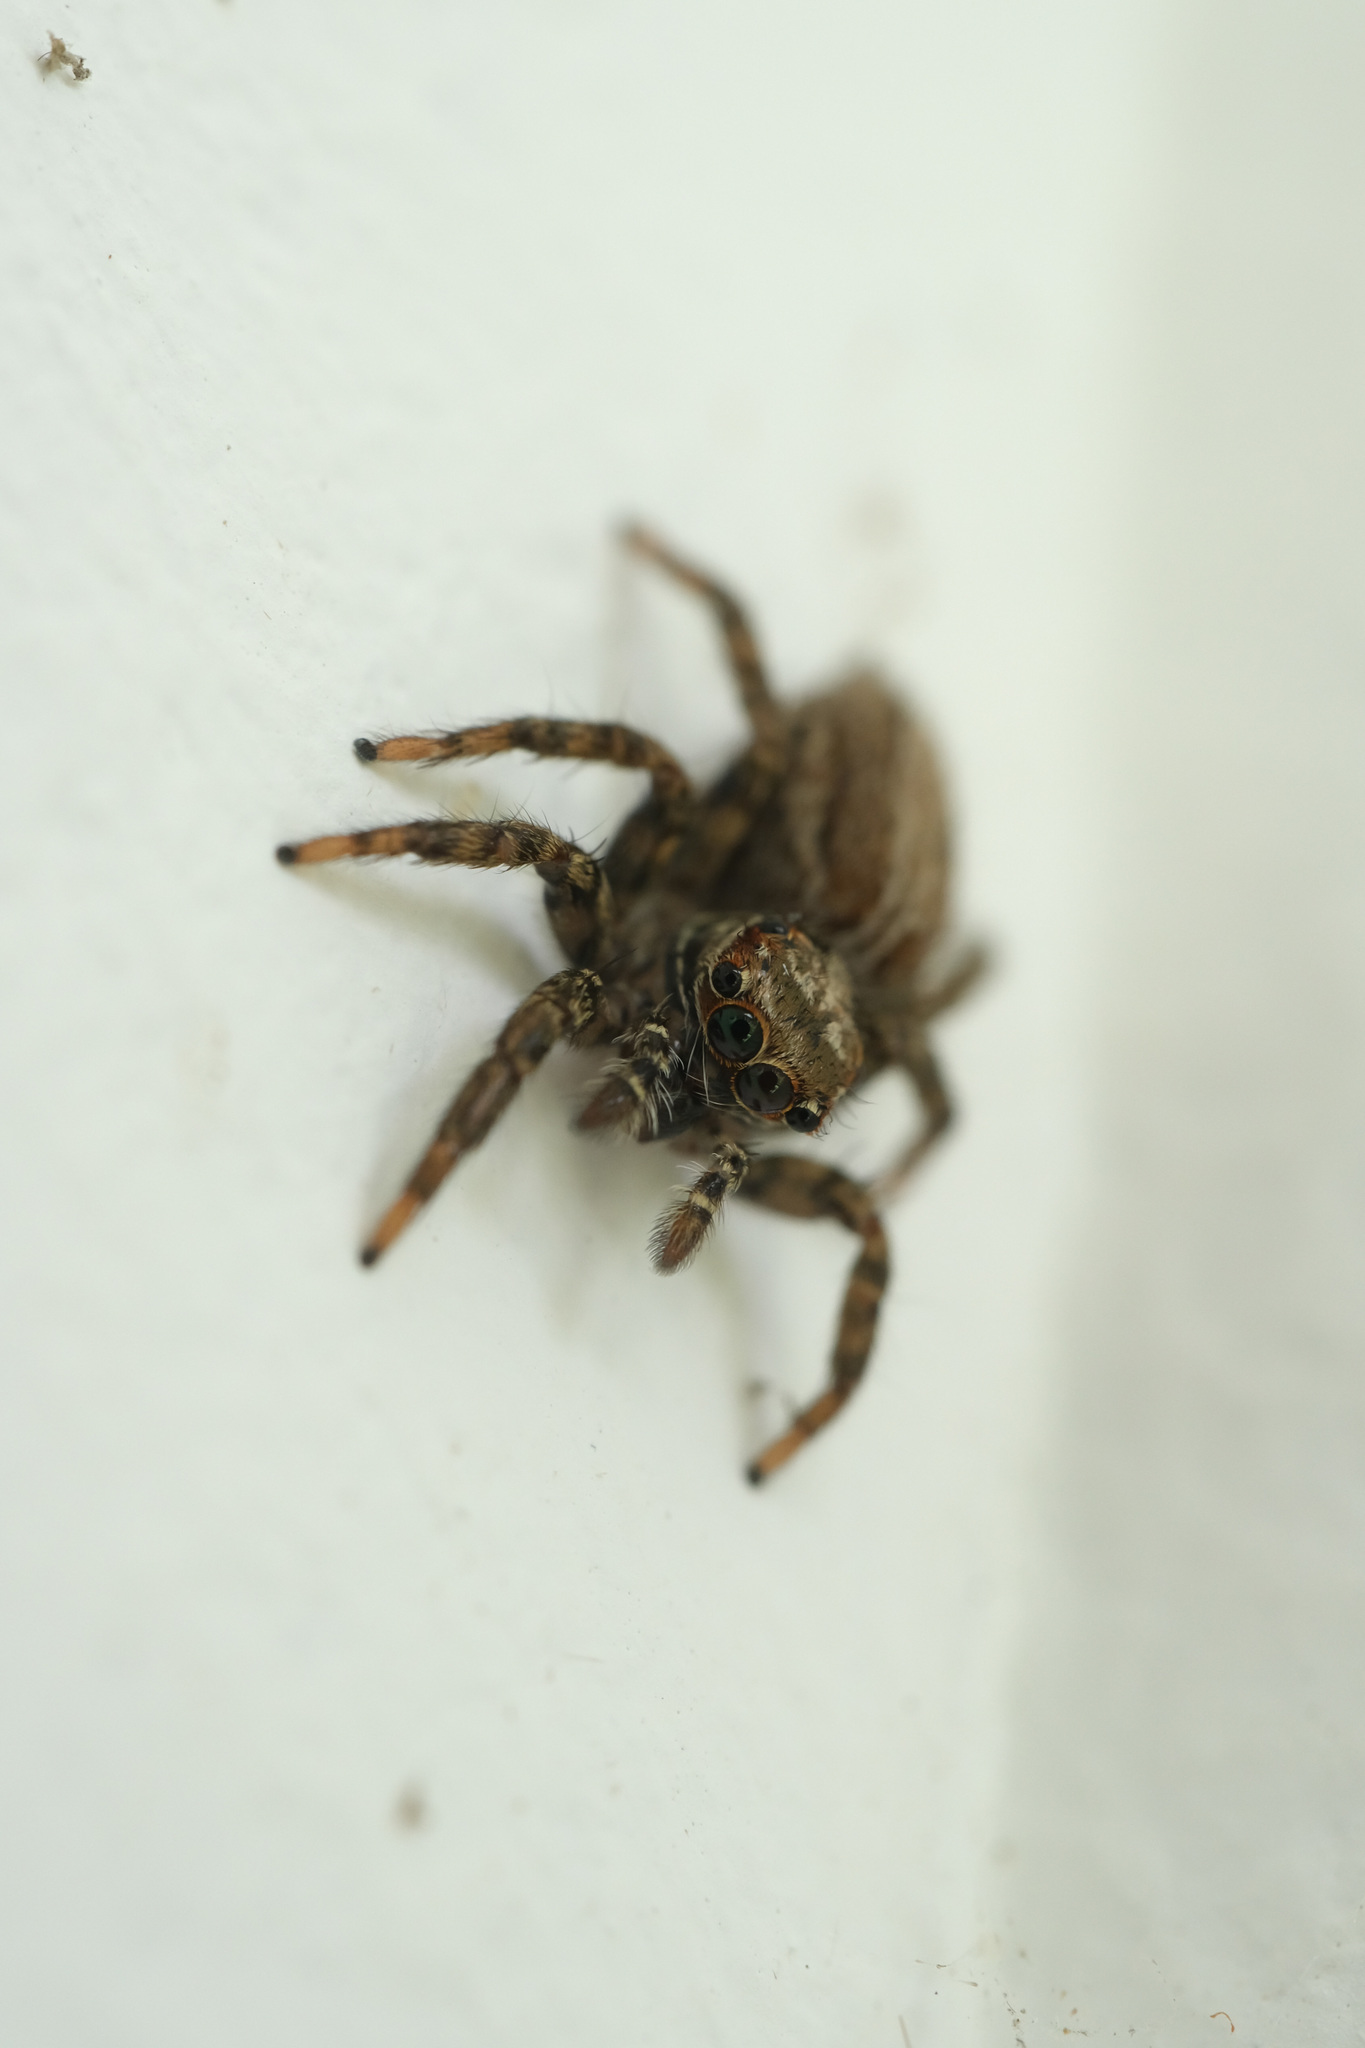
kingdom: Animalia
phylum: Arthropoda
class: Arachnida
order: Araneae
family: Salticidae
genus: Plexippus
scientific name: Plexippus setipes
